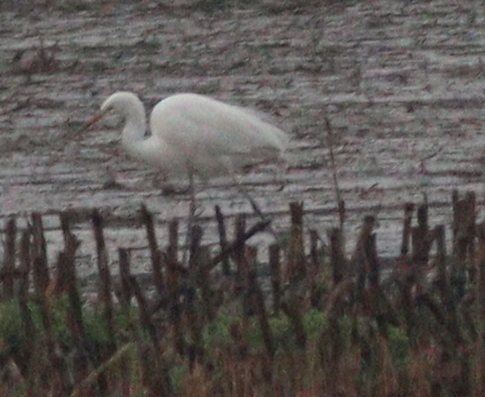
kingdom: Animalia
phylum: Chordata
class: Aves
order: Pelecaniformes
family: Ardeidae
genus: Ardea
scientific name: Ardea alba
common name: Great egret
